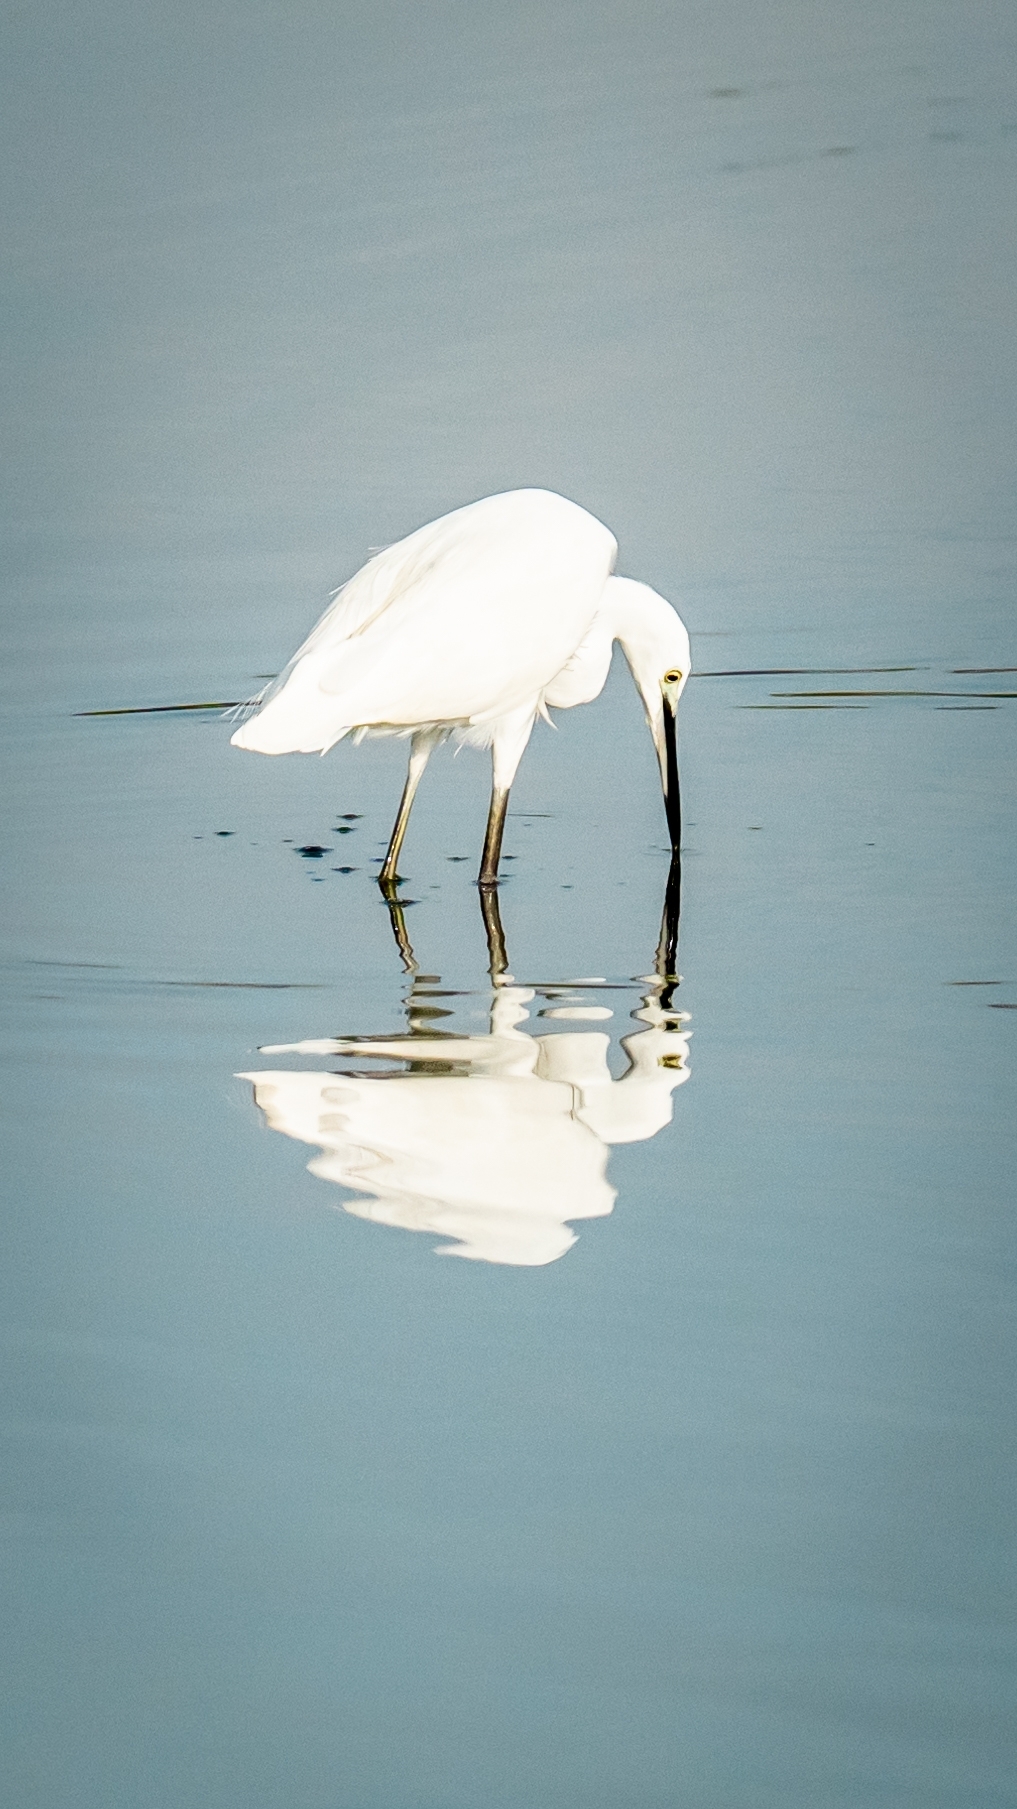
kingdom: Animalia
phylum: Chordata
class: Aves
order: Pelecaniformes
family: Ardeidae
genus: Egretta
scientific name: Egretta garzetta
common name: Little egret
